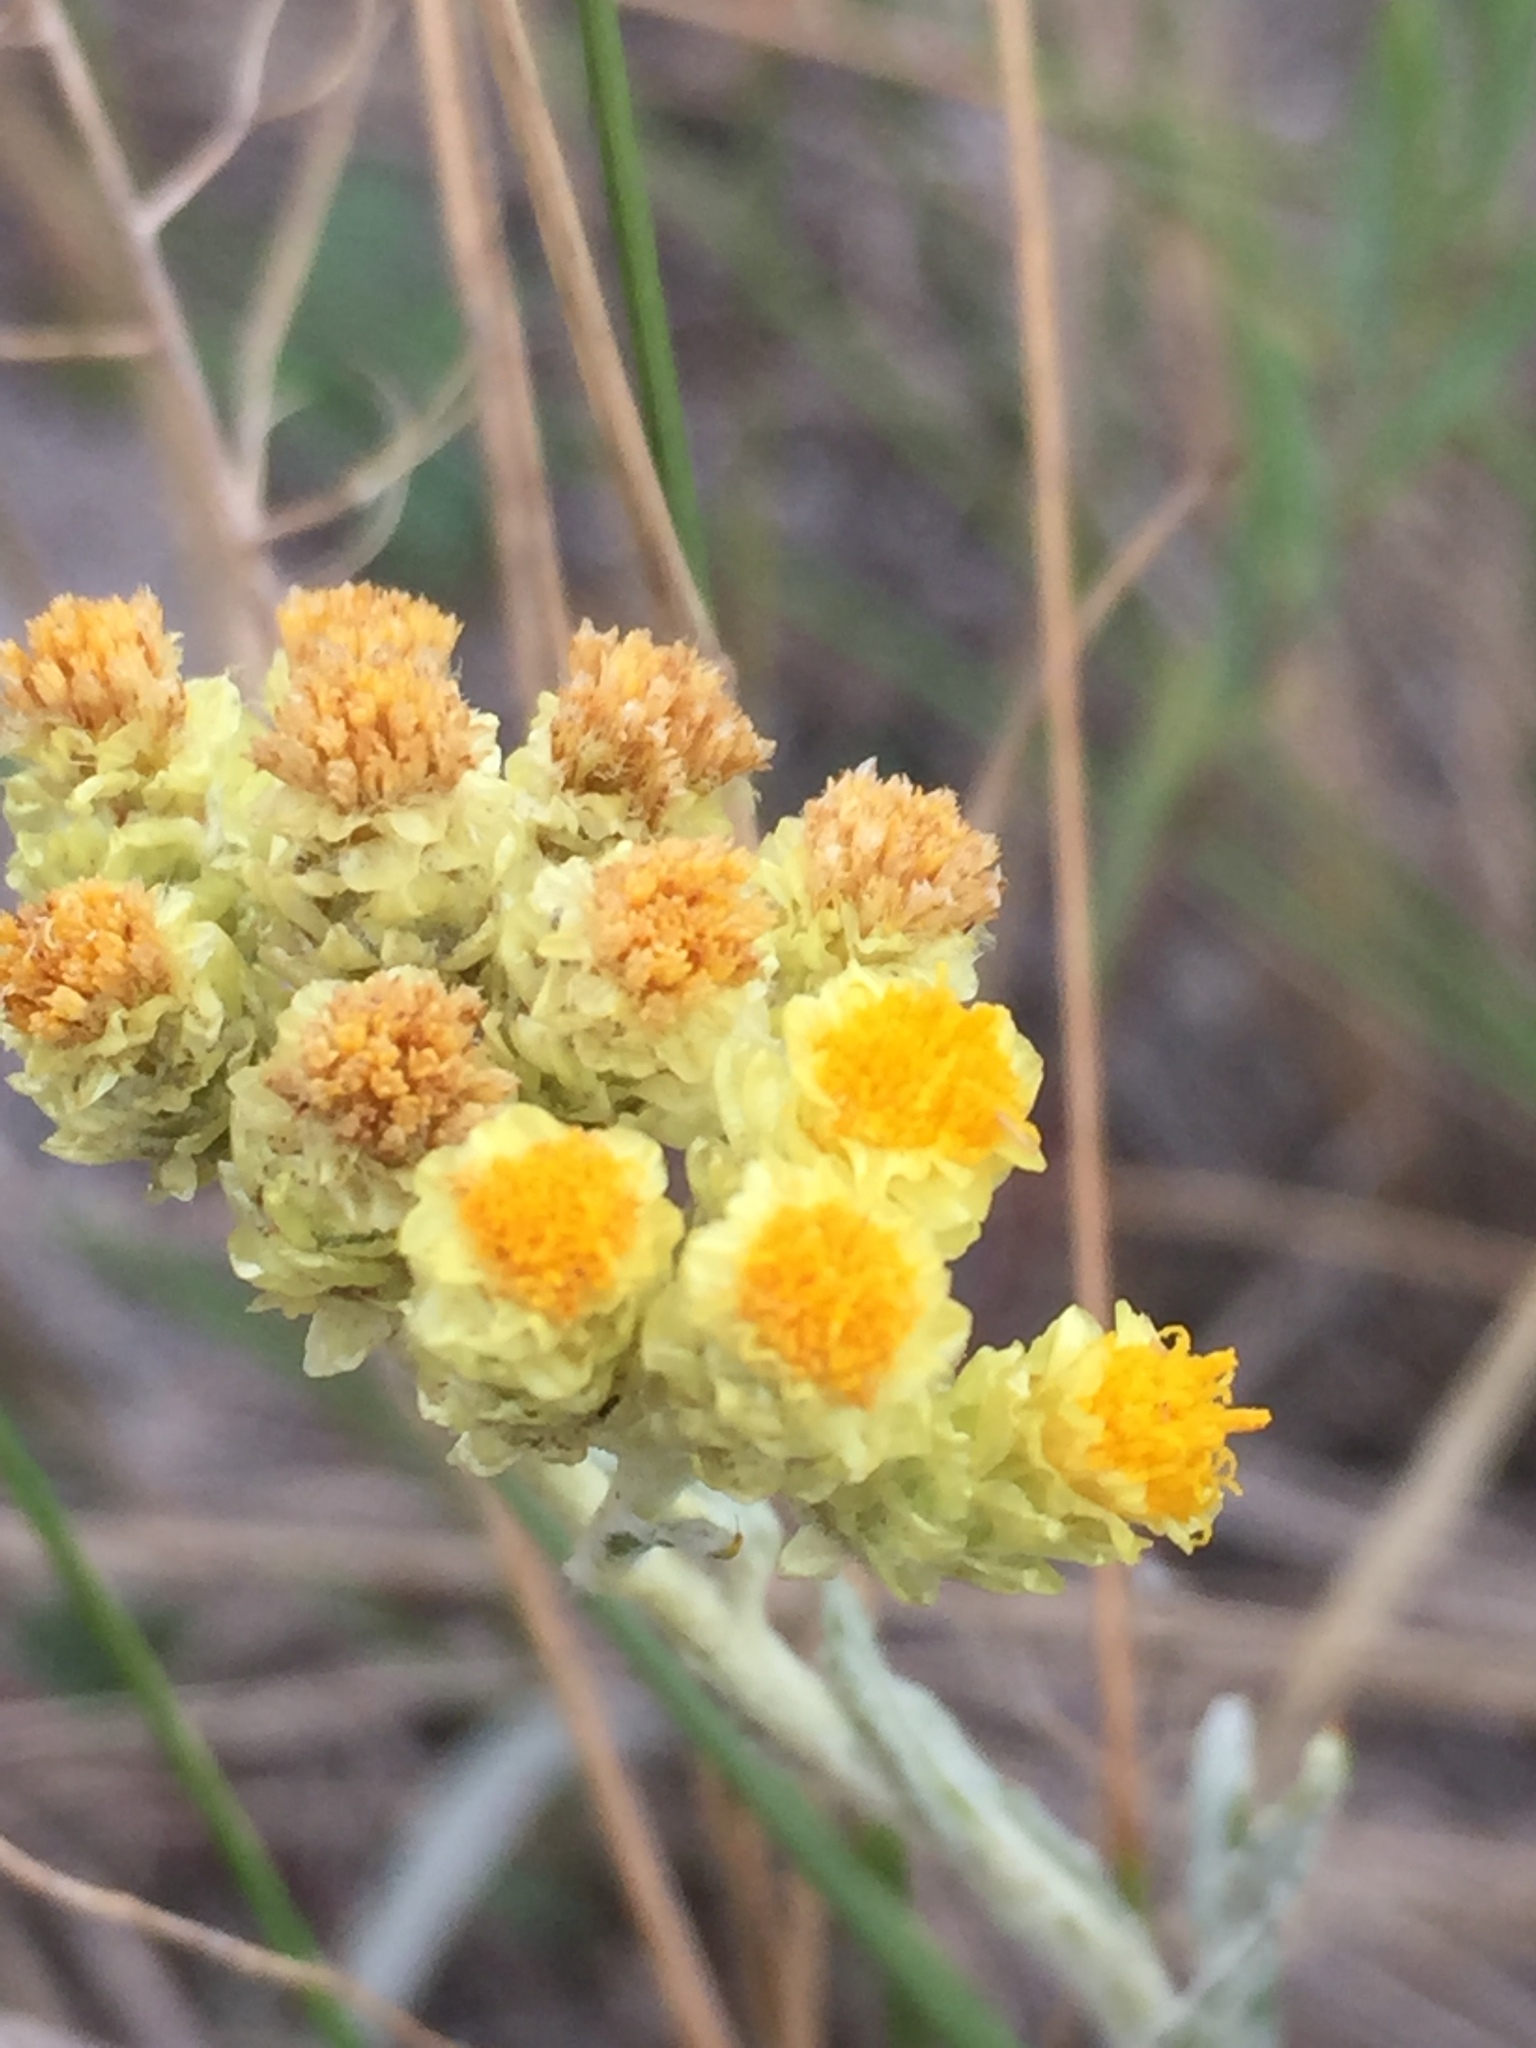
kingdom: Plantae
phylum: Tracheophyta
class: Magnoliopsida
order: Asterales
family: Asteraceae
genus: Helichrysum
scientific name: Helichrysum arenarium
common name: Strawflower
